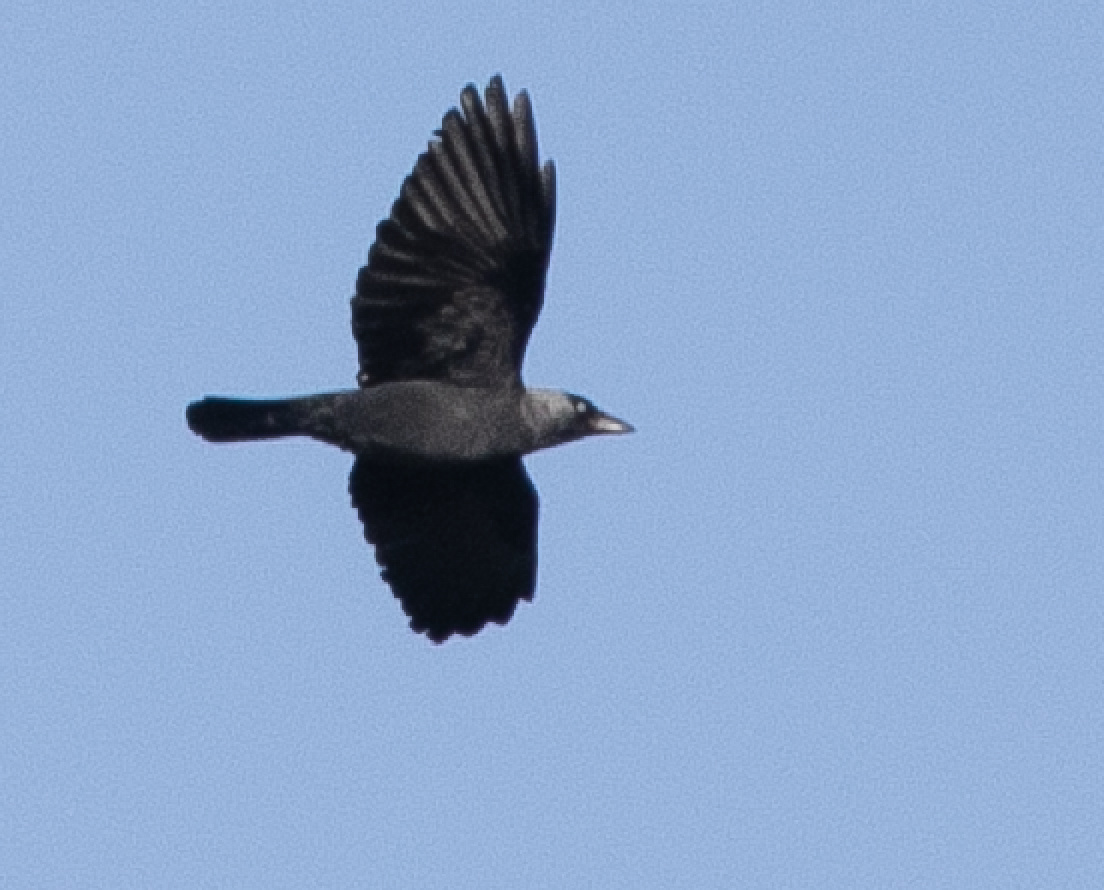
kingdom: Animalia
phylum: Chordata
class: Aves
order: Passeriformes
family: Corvidae
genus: Coloeus
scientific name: Coloeus monedula
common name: Western jackdaw
